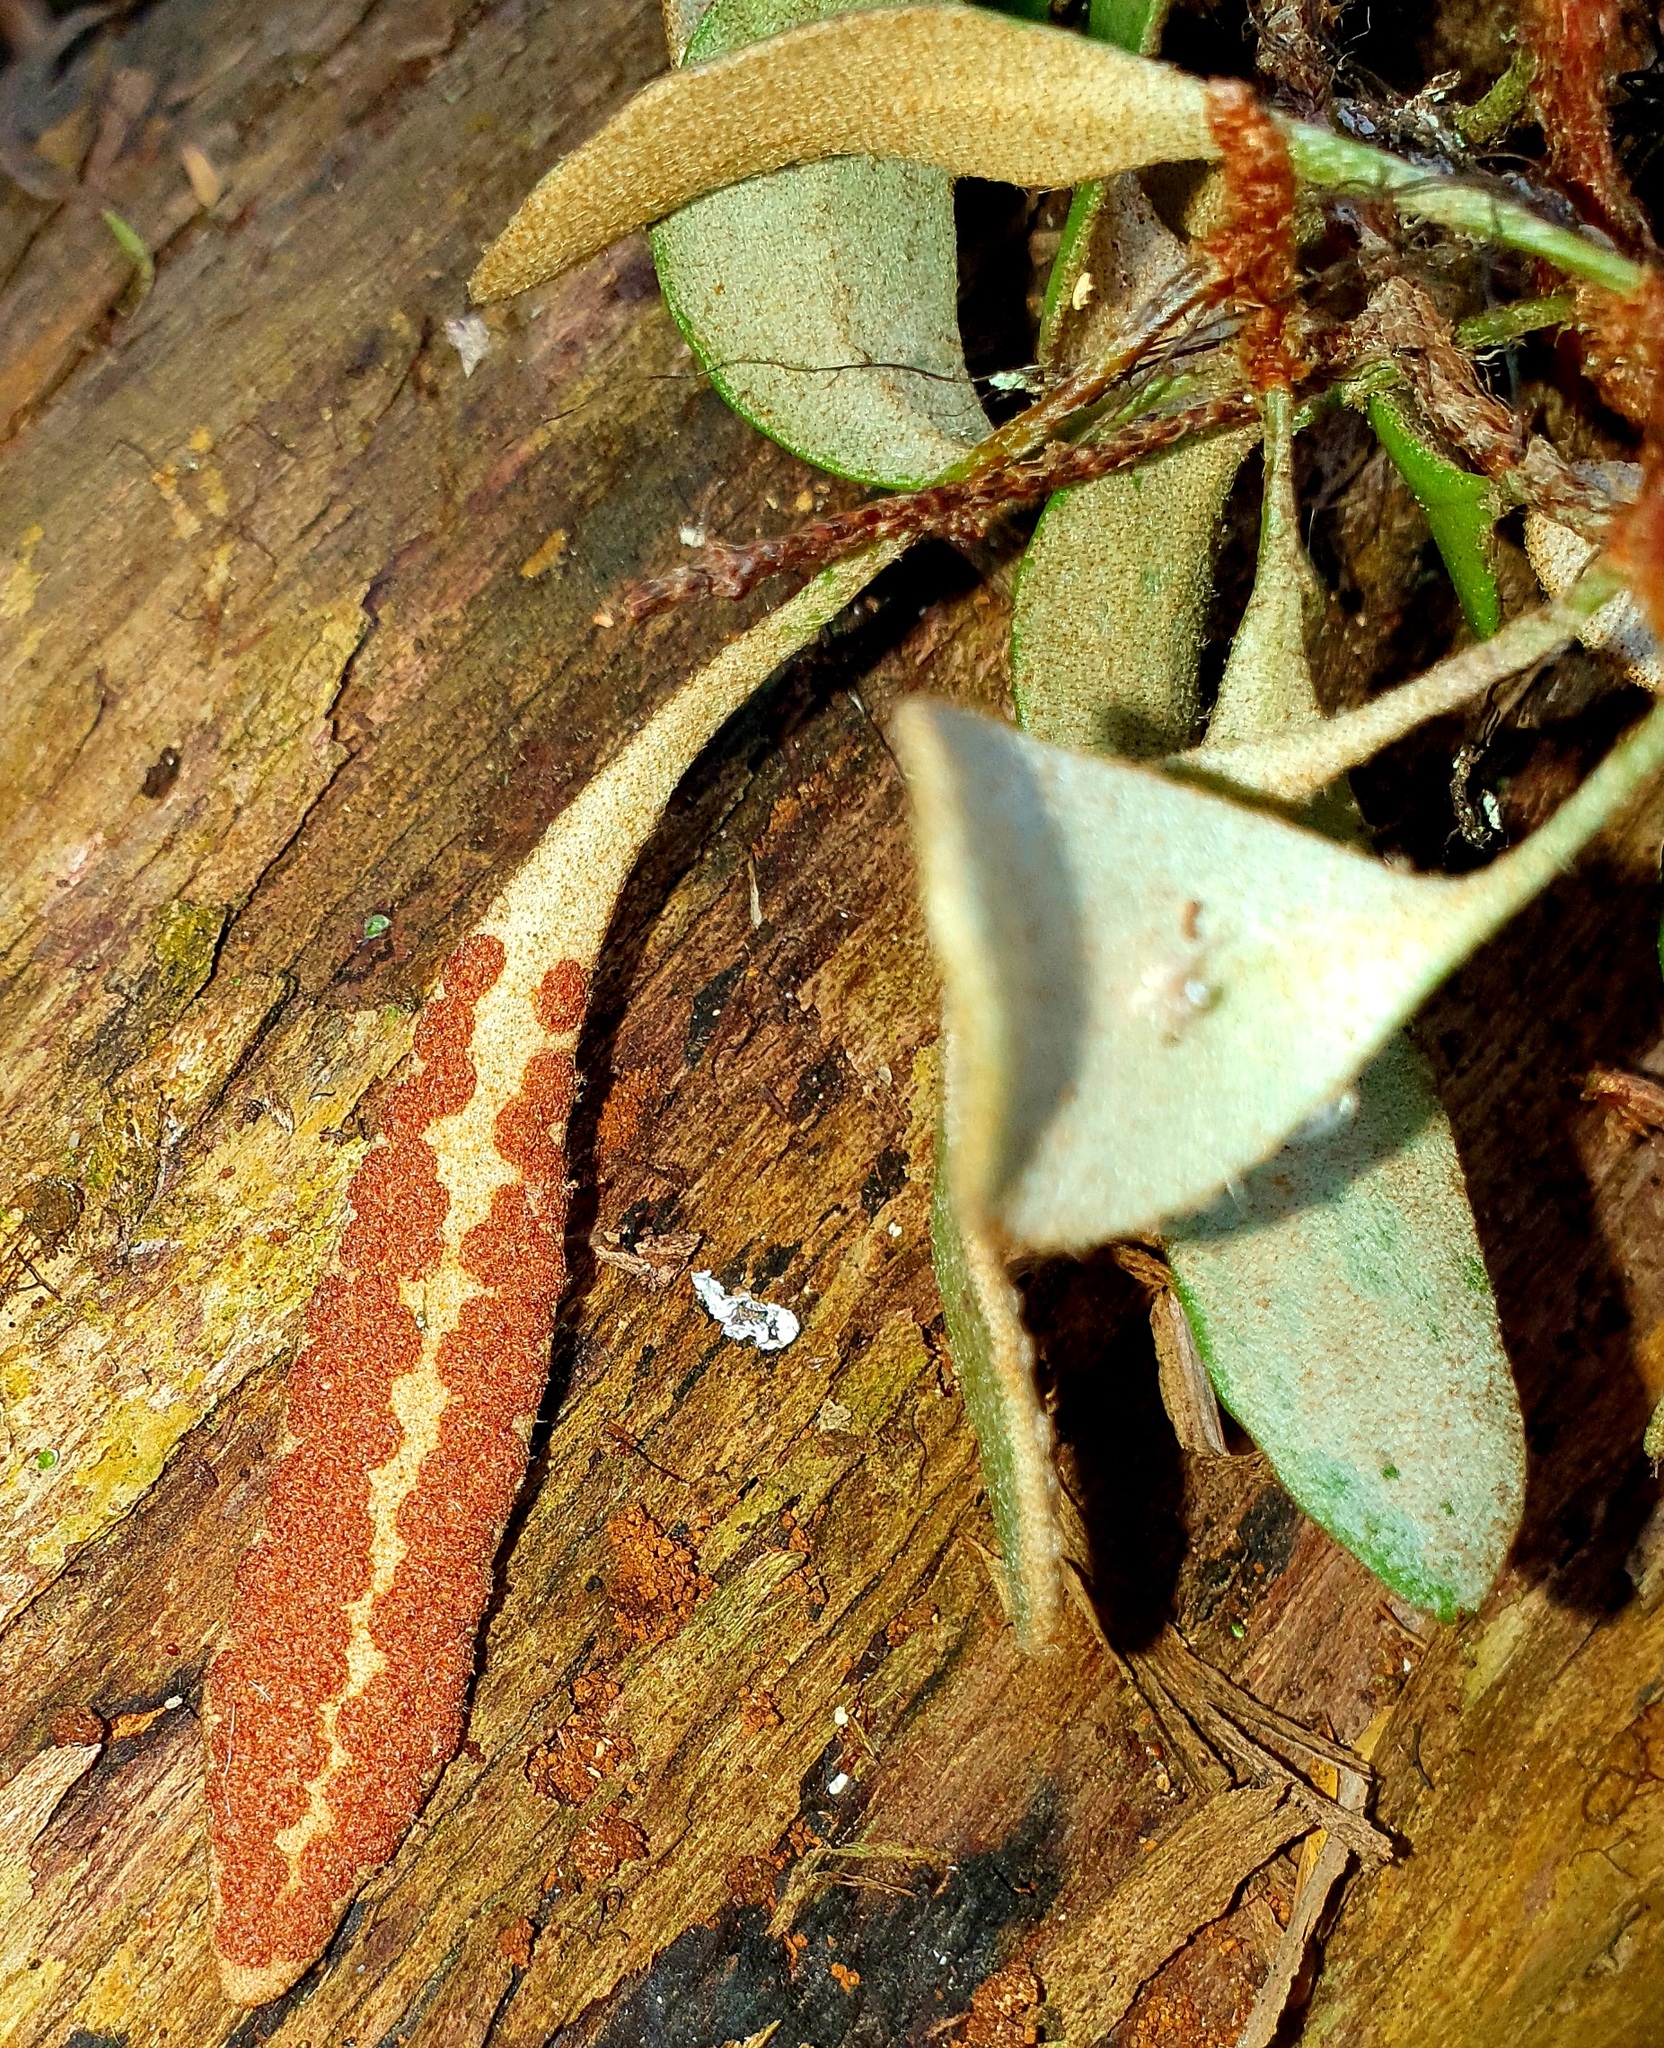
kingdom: Plantae
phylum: Tracheophyta
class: Polypodiopsida
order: Polypodiales
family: Polypodiaceae
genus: Pyrrosia
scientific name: Pyrrosia eleagnifolia
